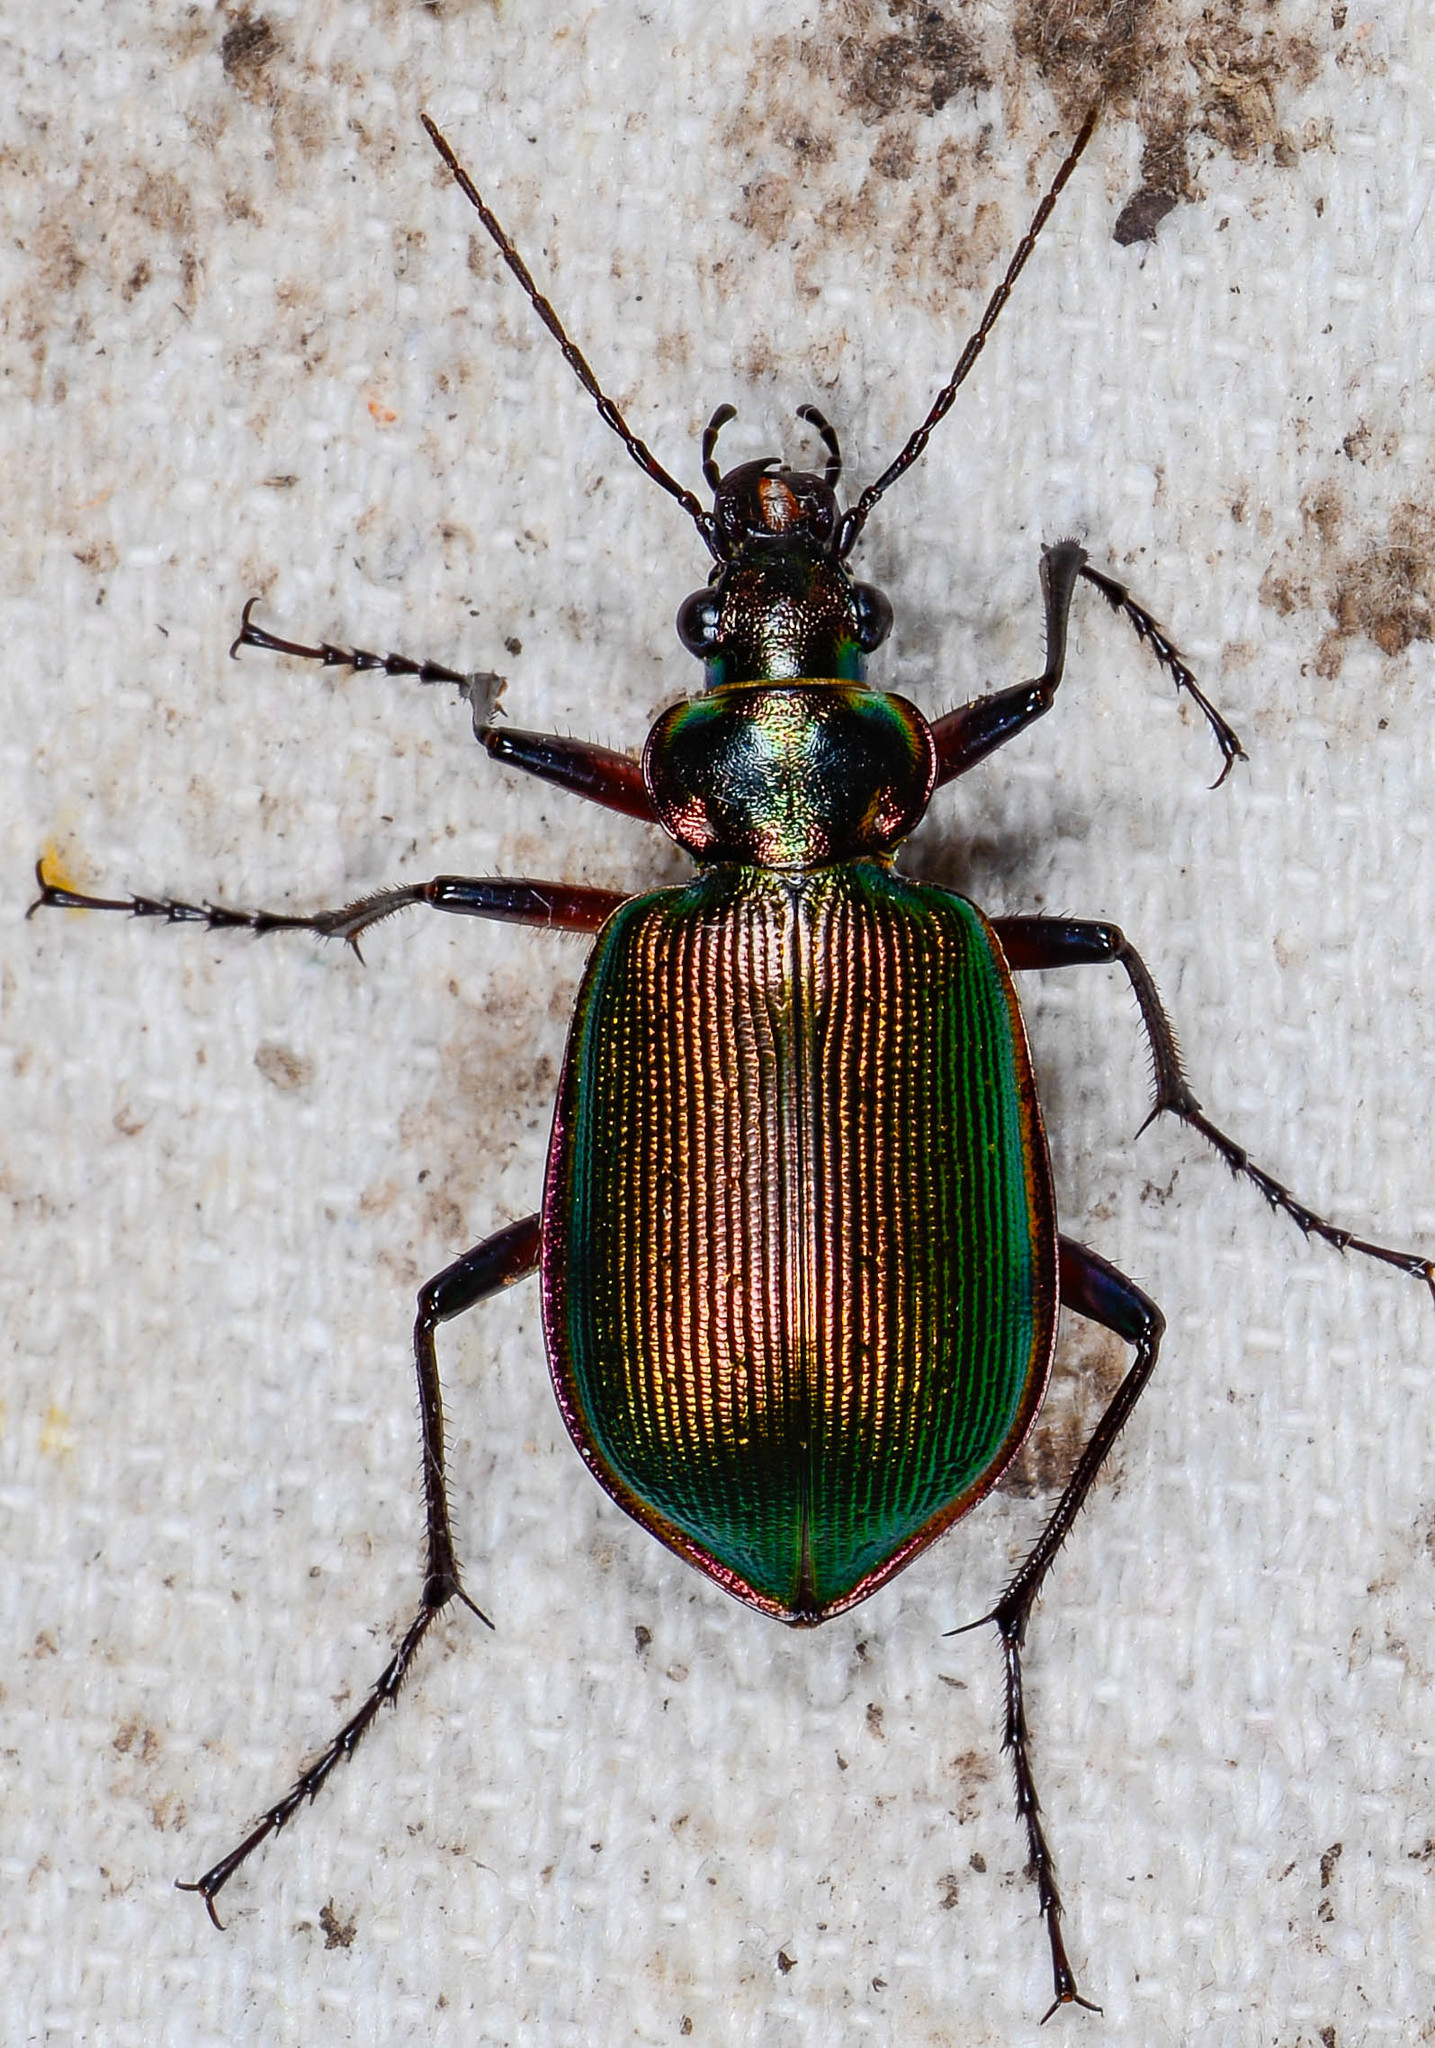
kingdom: Animalia
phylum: Arthropoda
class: Insecta
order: Coleoptera
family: Carabidae
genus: Calosoma
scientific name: Calosoma scrutator
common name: Fiery searcher beetle
